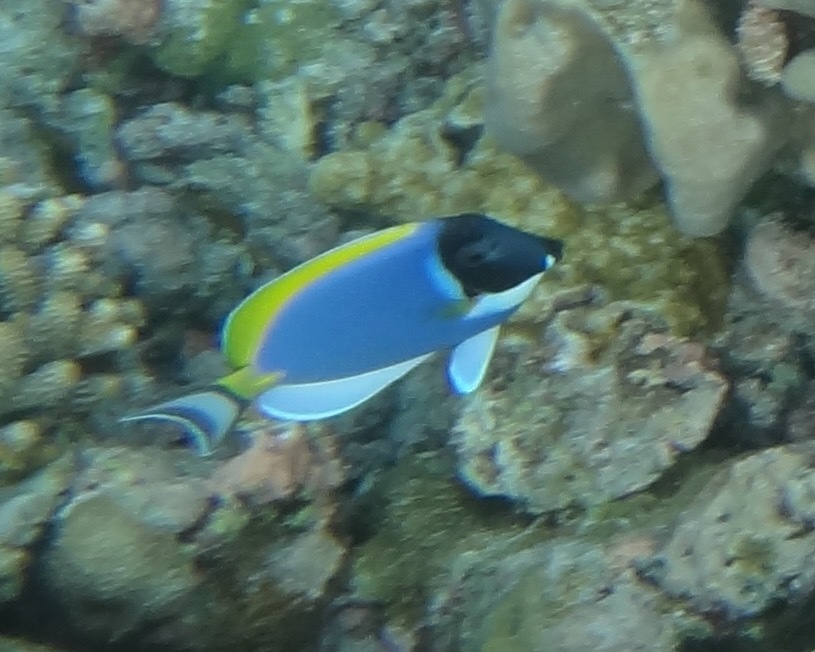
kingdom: Animalia
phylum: Chordata
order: Perciformes
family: Acanthuridae
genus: Acanthurus
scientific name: Acanthurus leucosternon
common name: Blue surgeonfish
